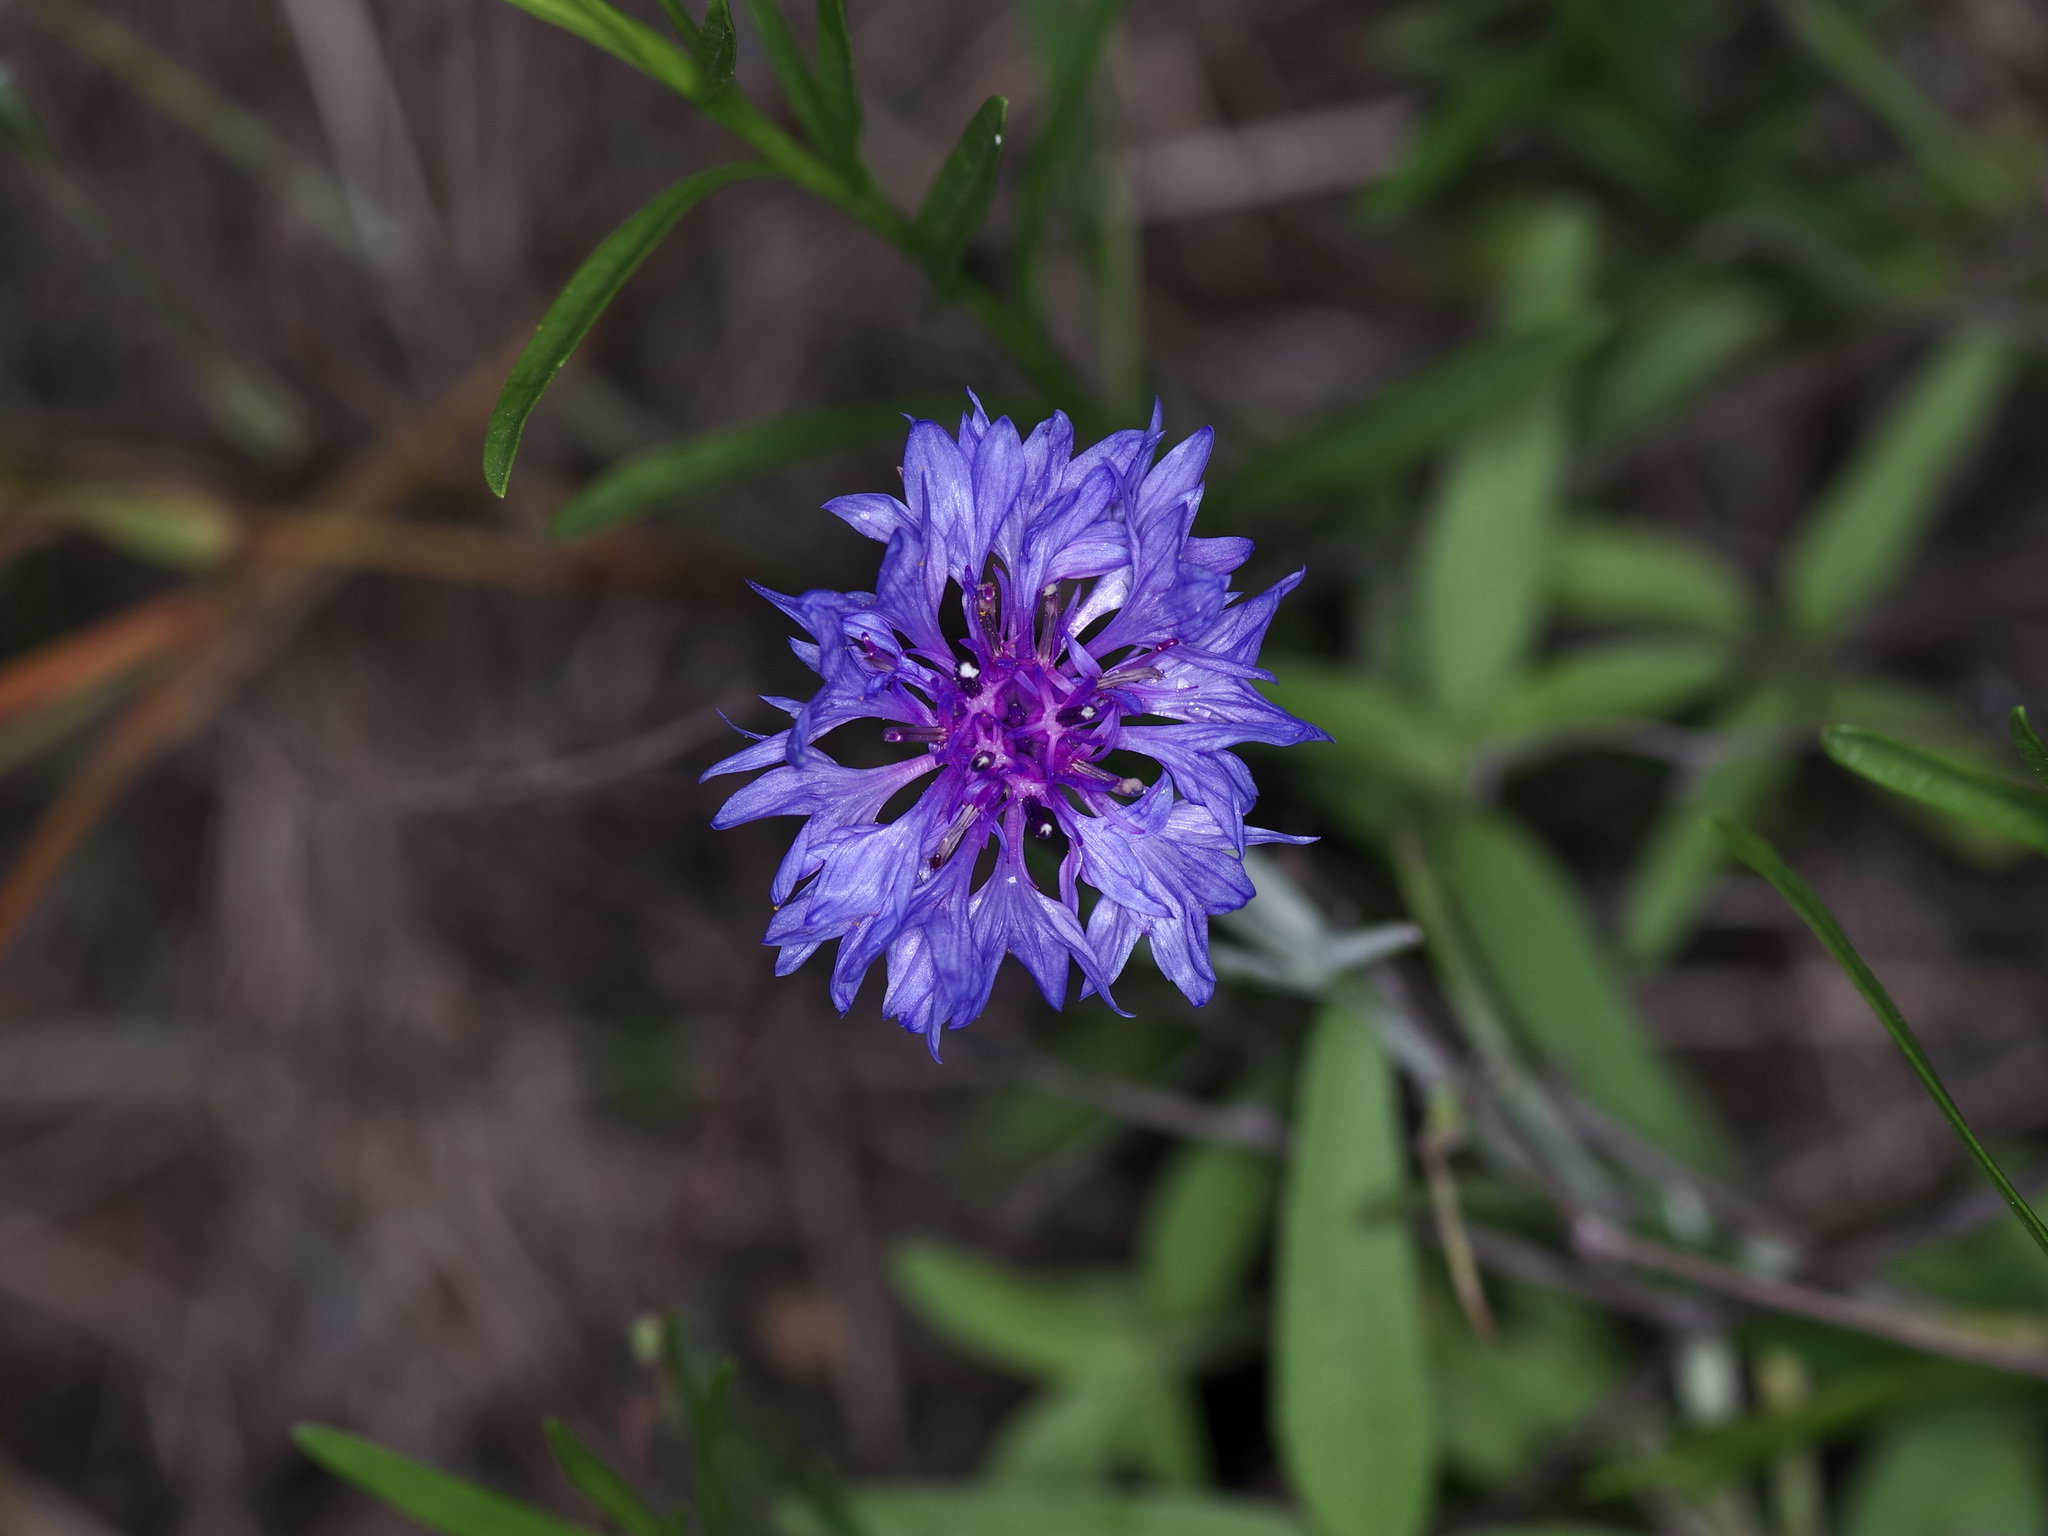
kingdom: Plantae
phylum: Tracheophyta
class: Magnoliopsida
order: Asterales
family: Asteraceae
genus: Centaurea
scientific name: Centaurea cyanus
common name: Cornflower
